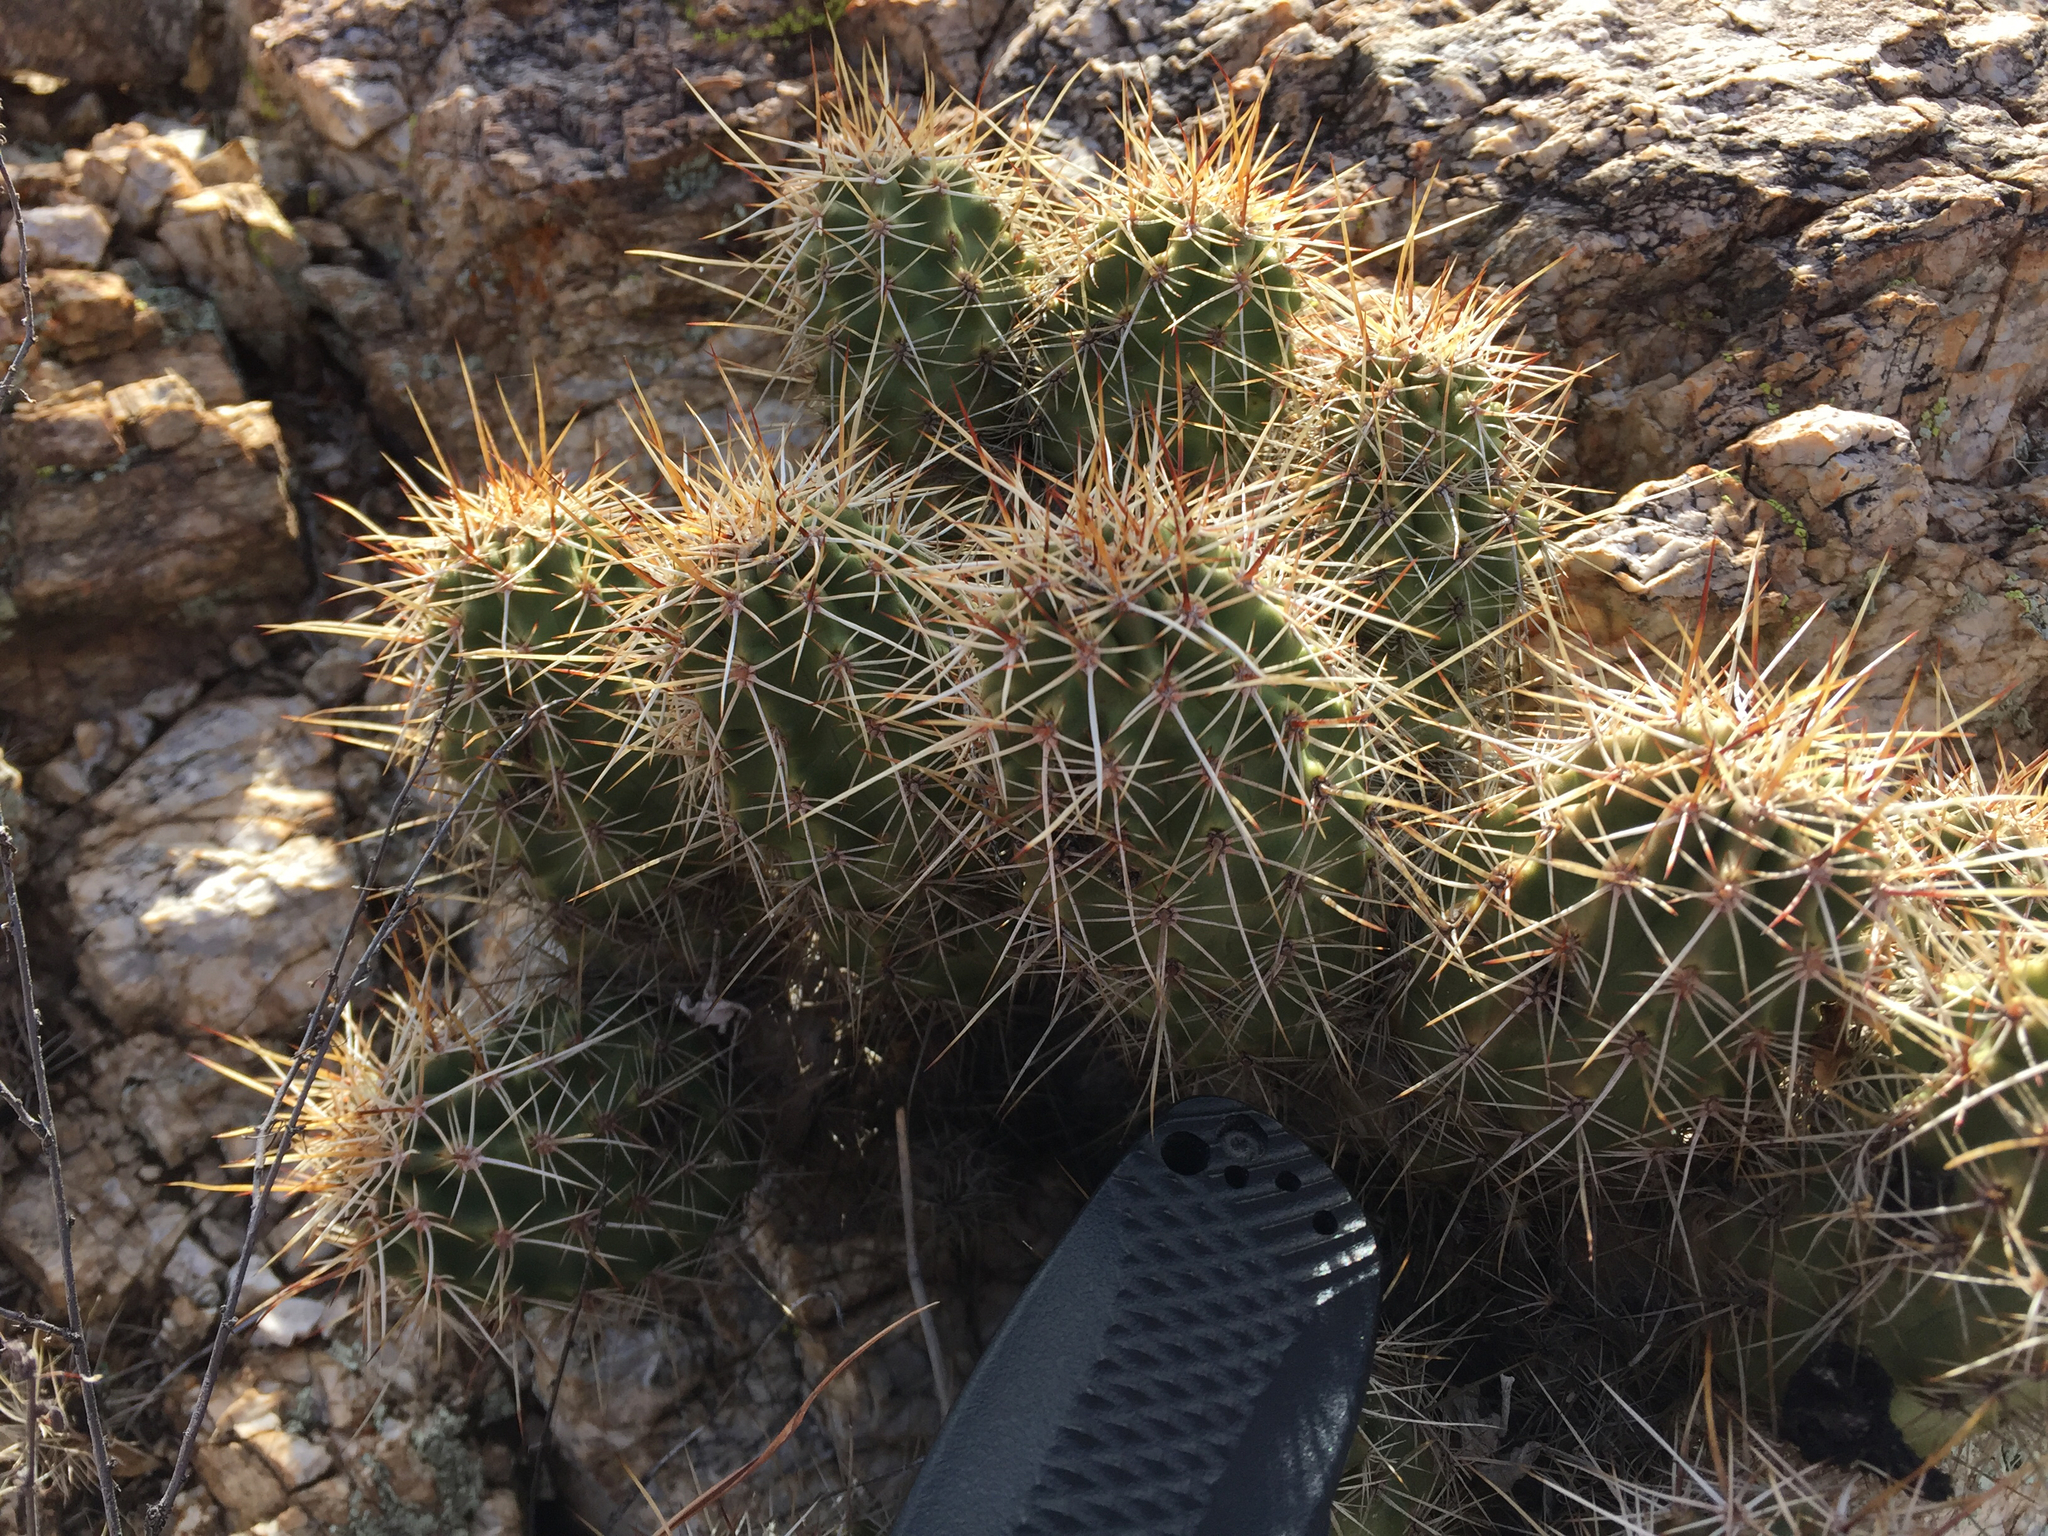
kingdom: Plantae
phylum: Tracheophyta
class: Magnoliopsida
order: Caryophyllales
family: Cactaceae
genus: Echinocereus
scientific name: Echinocereus fasciculatus
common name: Bundle hedgehog
